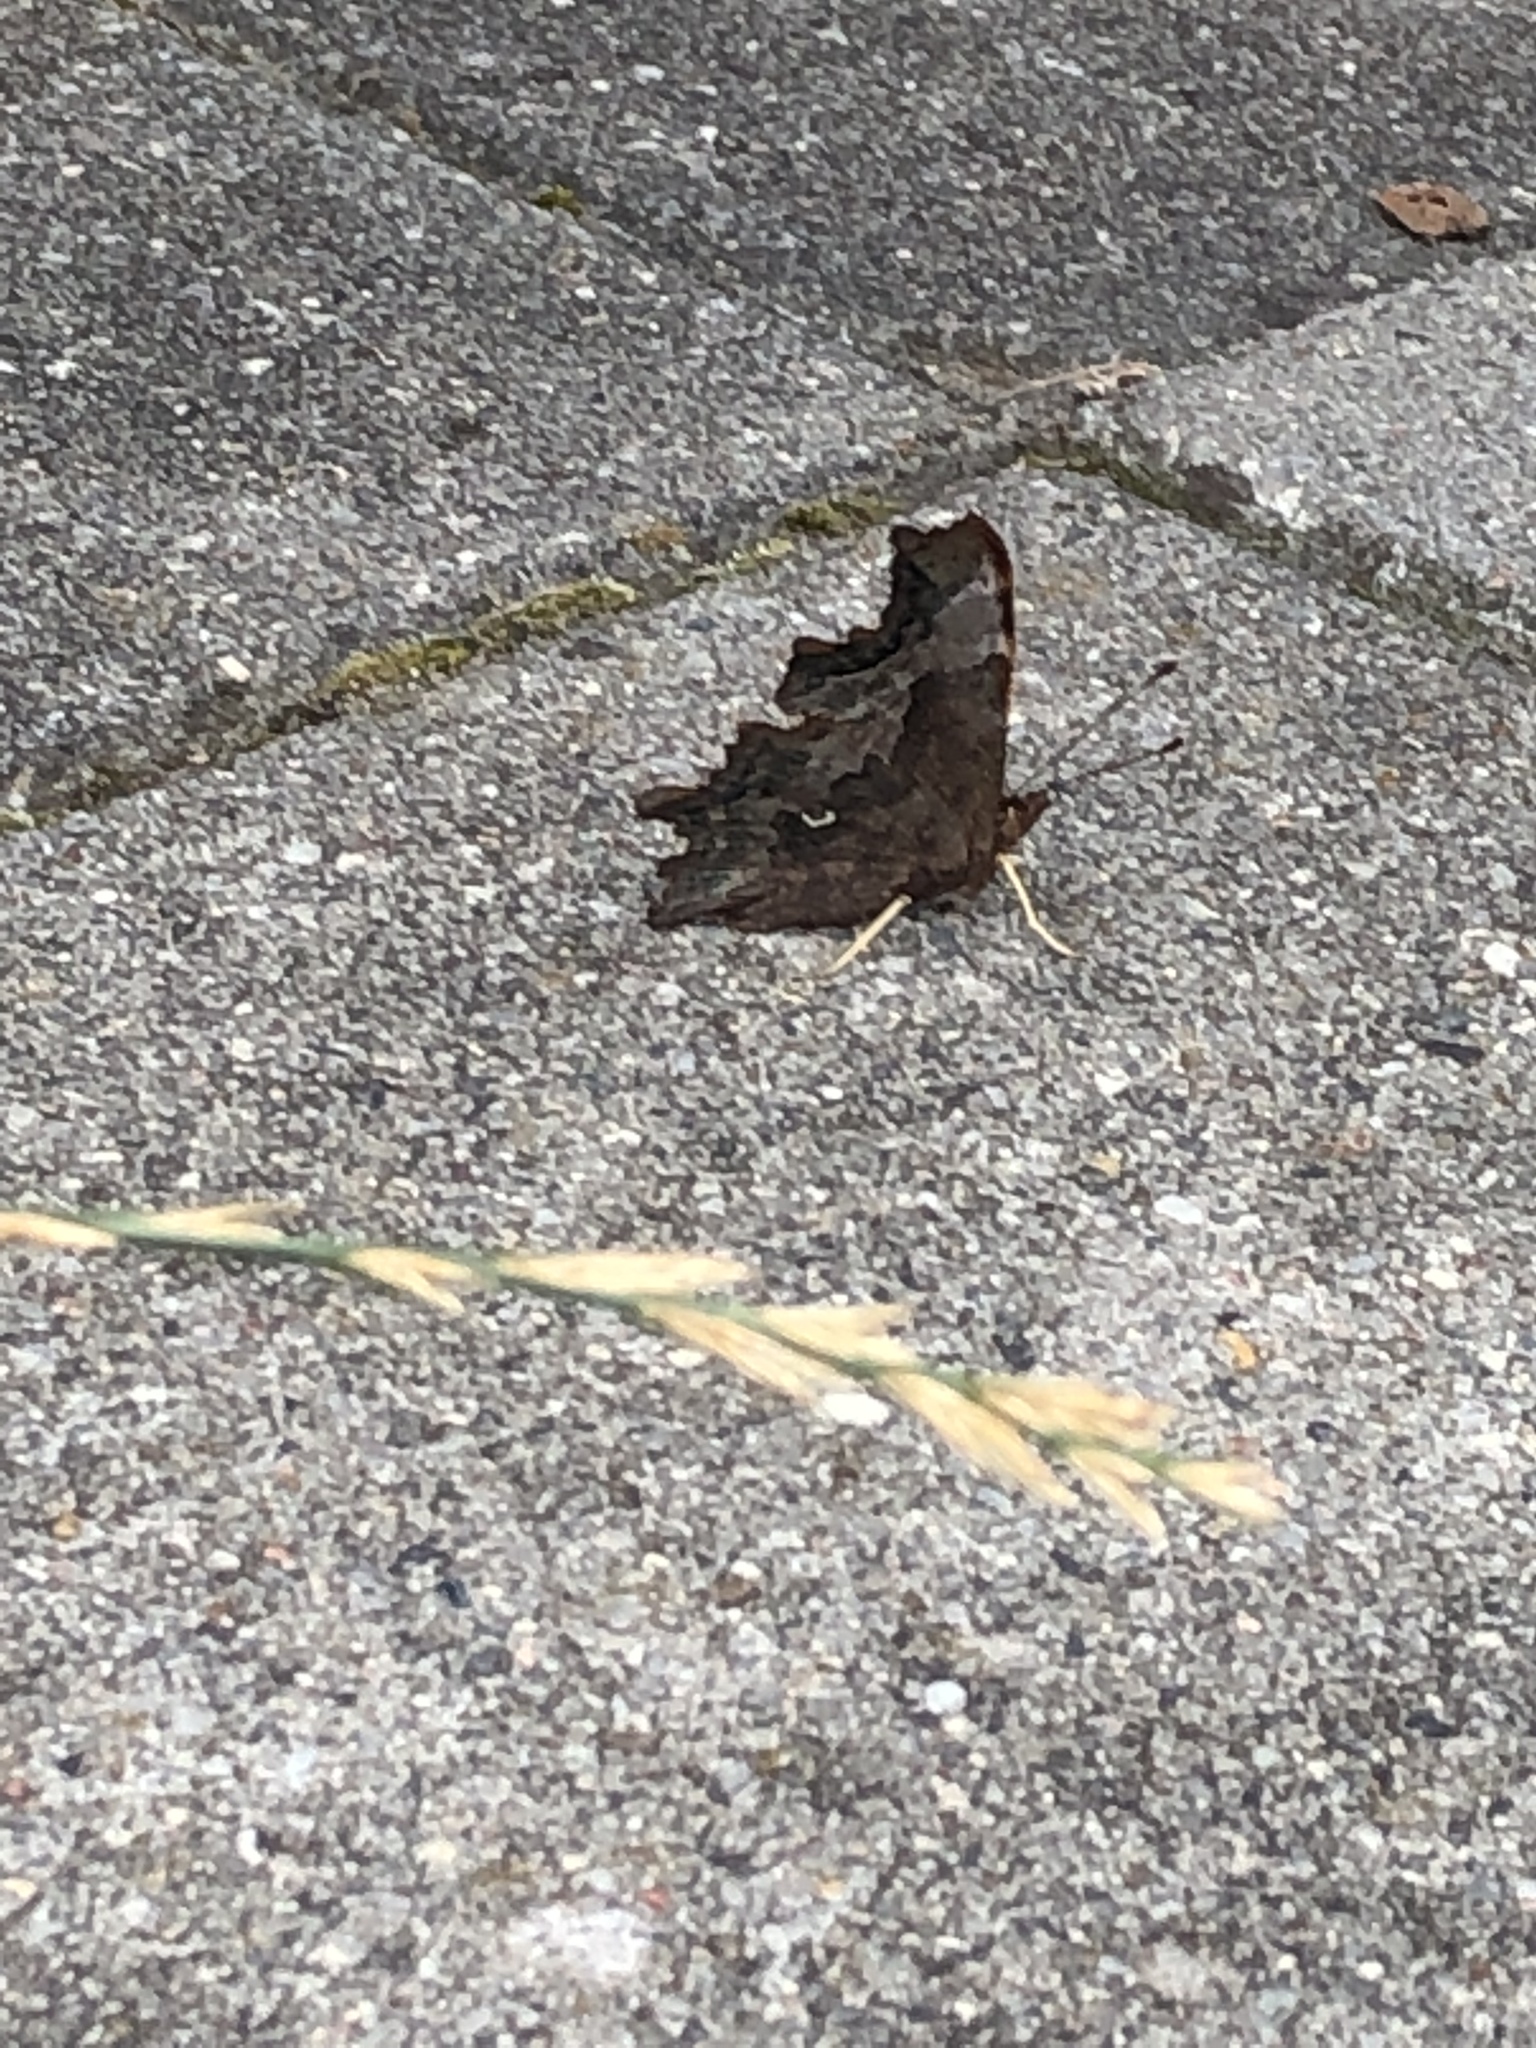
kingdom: Animalia
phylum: Arthropoda
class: Insecta
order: Lepidoptera
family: Nymphalidae
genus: Polygonia
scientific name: Polygonia c-album
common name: Comma
